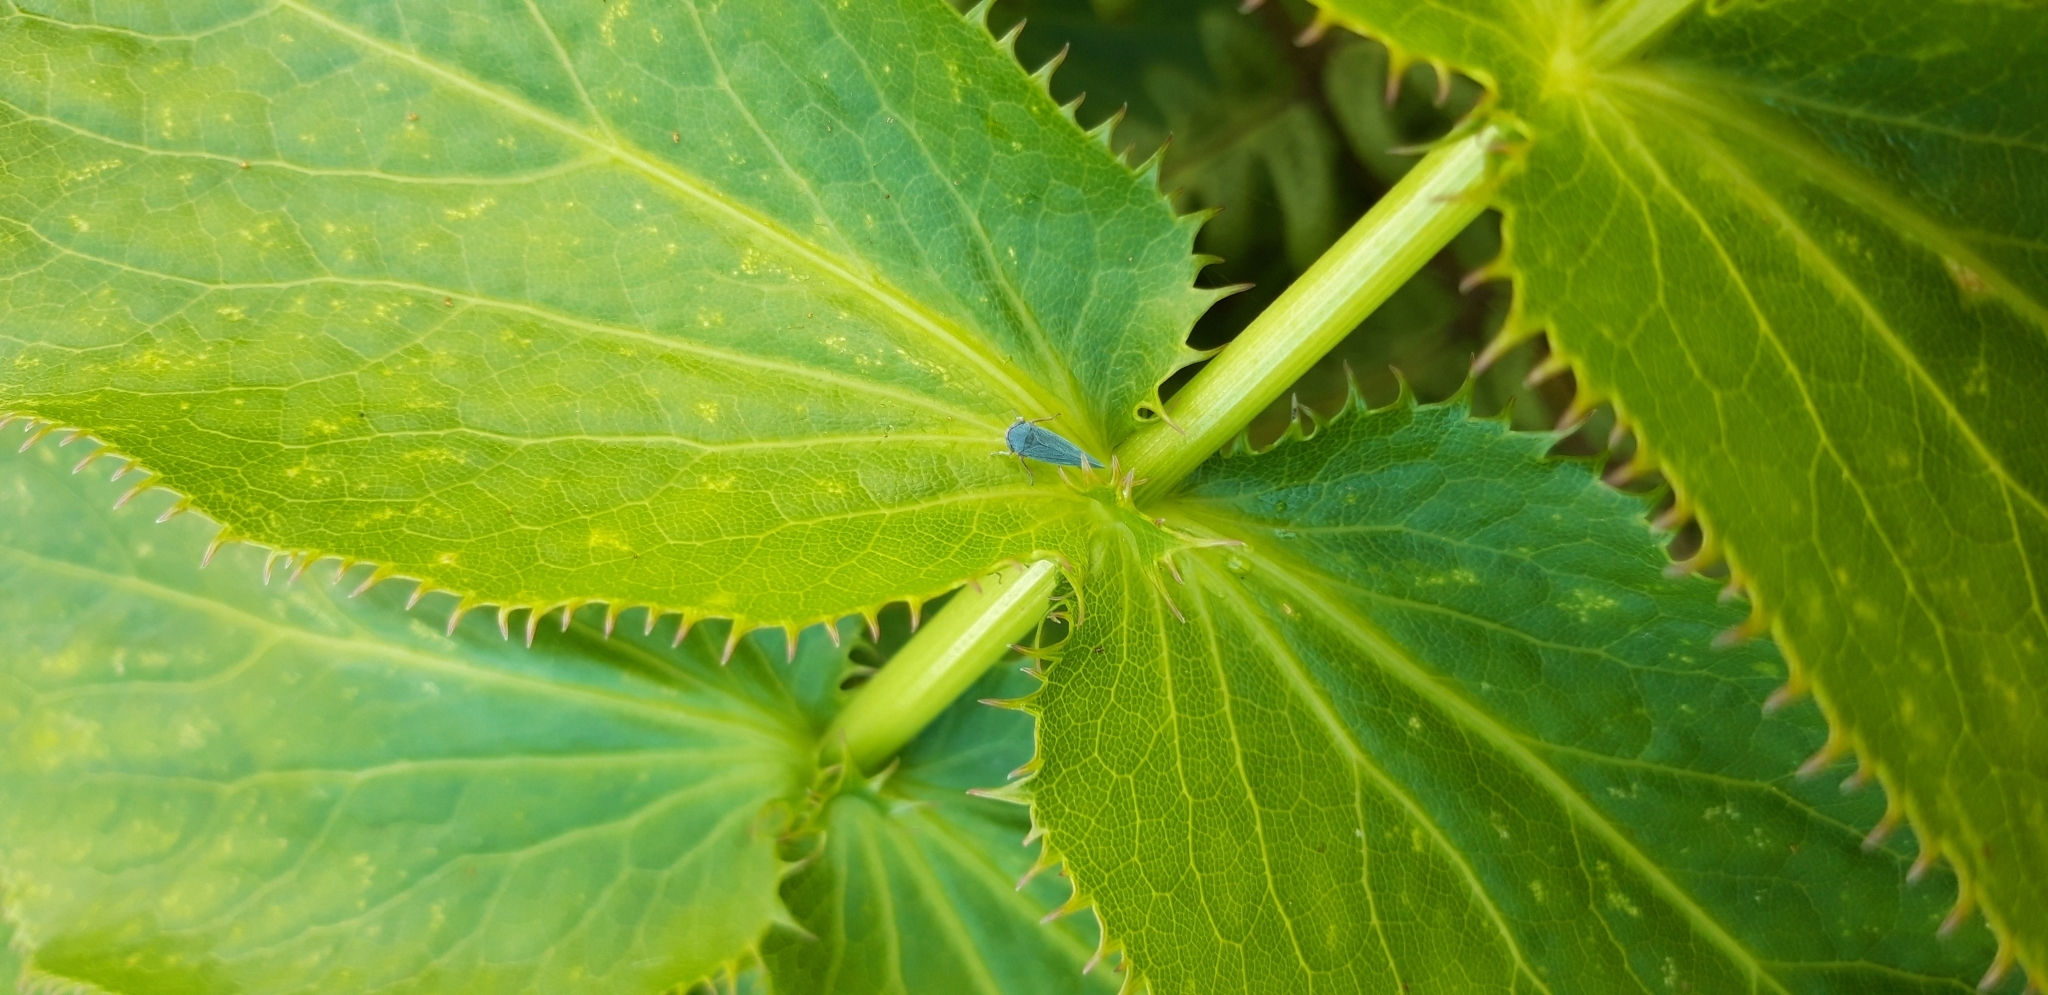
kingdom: Animalia
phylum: Arthropoda
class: Insecta
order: Hemiptera
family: Cicadellidae
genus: Nehela
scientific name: Nehela vulturina
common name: Vulturine leafhopper
